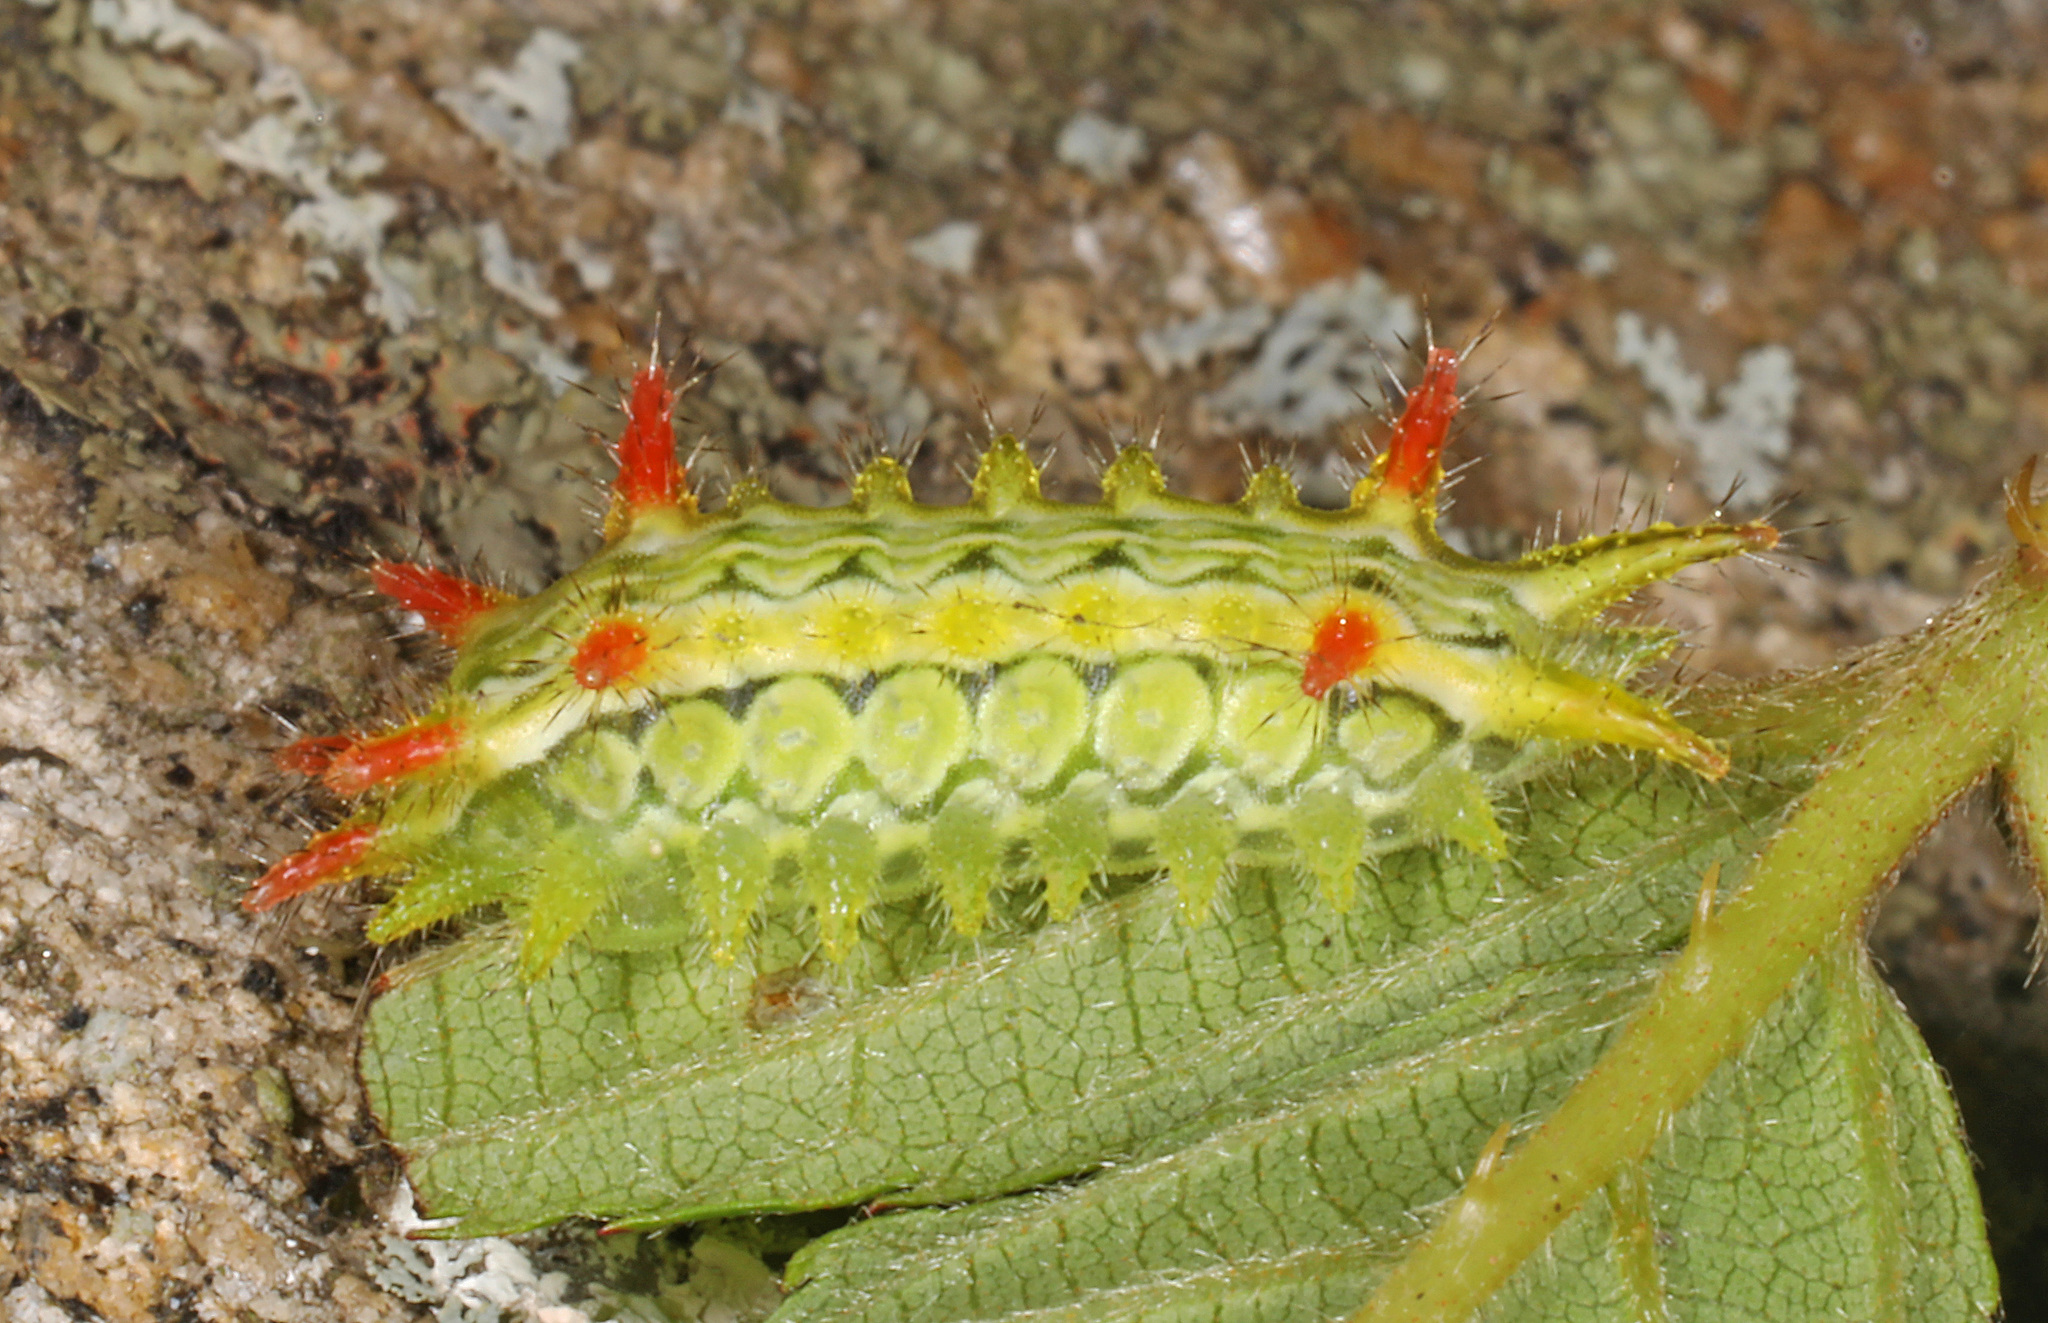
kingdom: Animalia
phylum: Arthropoda
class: Insecta
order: Lepidoptera
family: Limacodidae
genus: Euclea
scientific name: Euclea delphinii
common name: Spiny oak-slug moth
